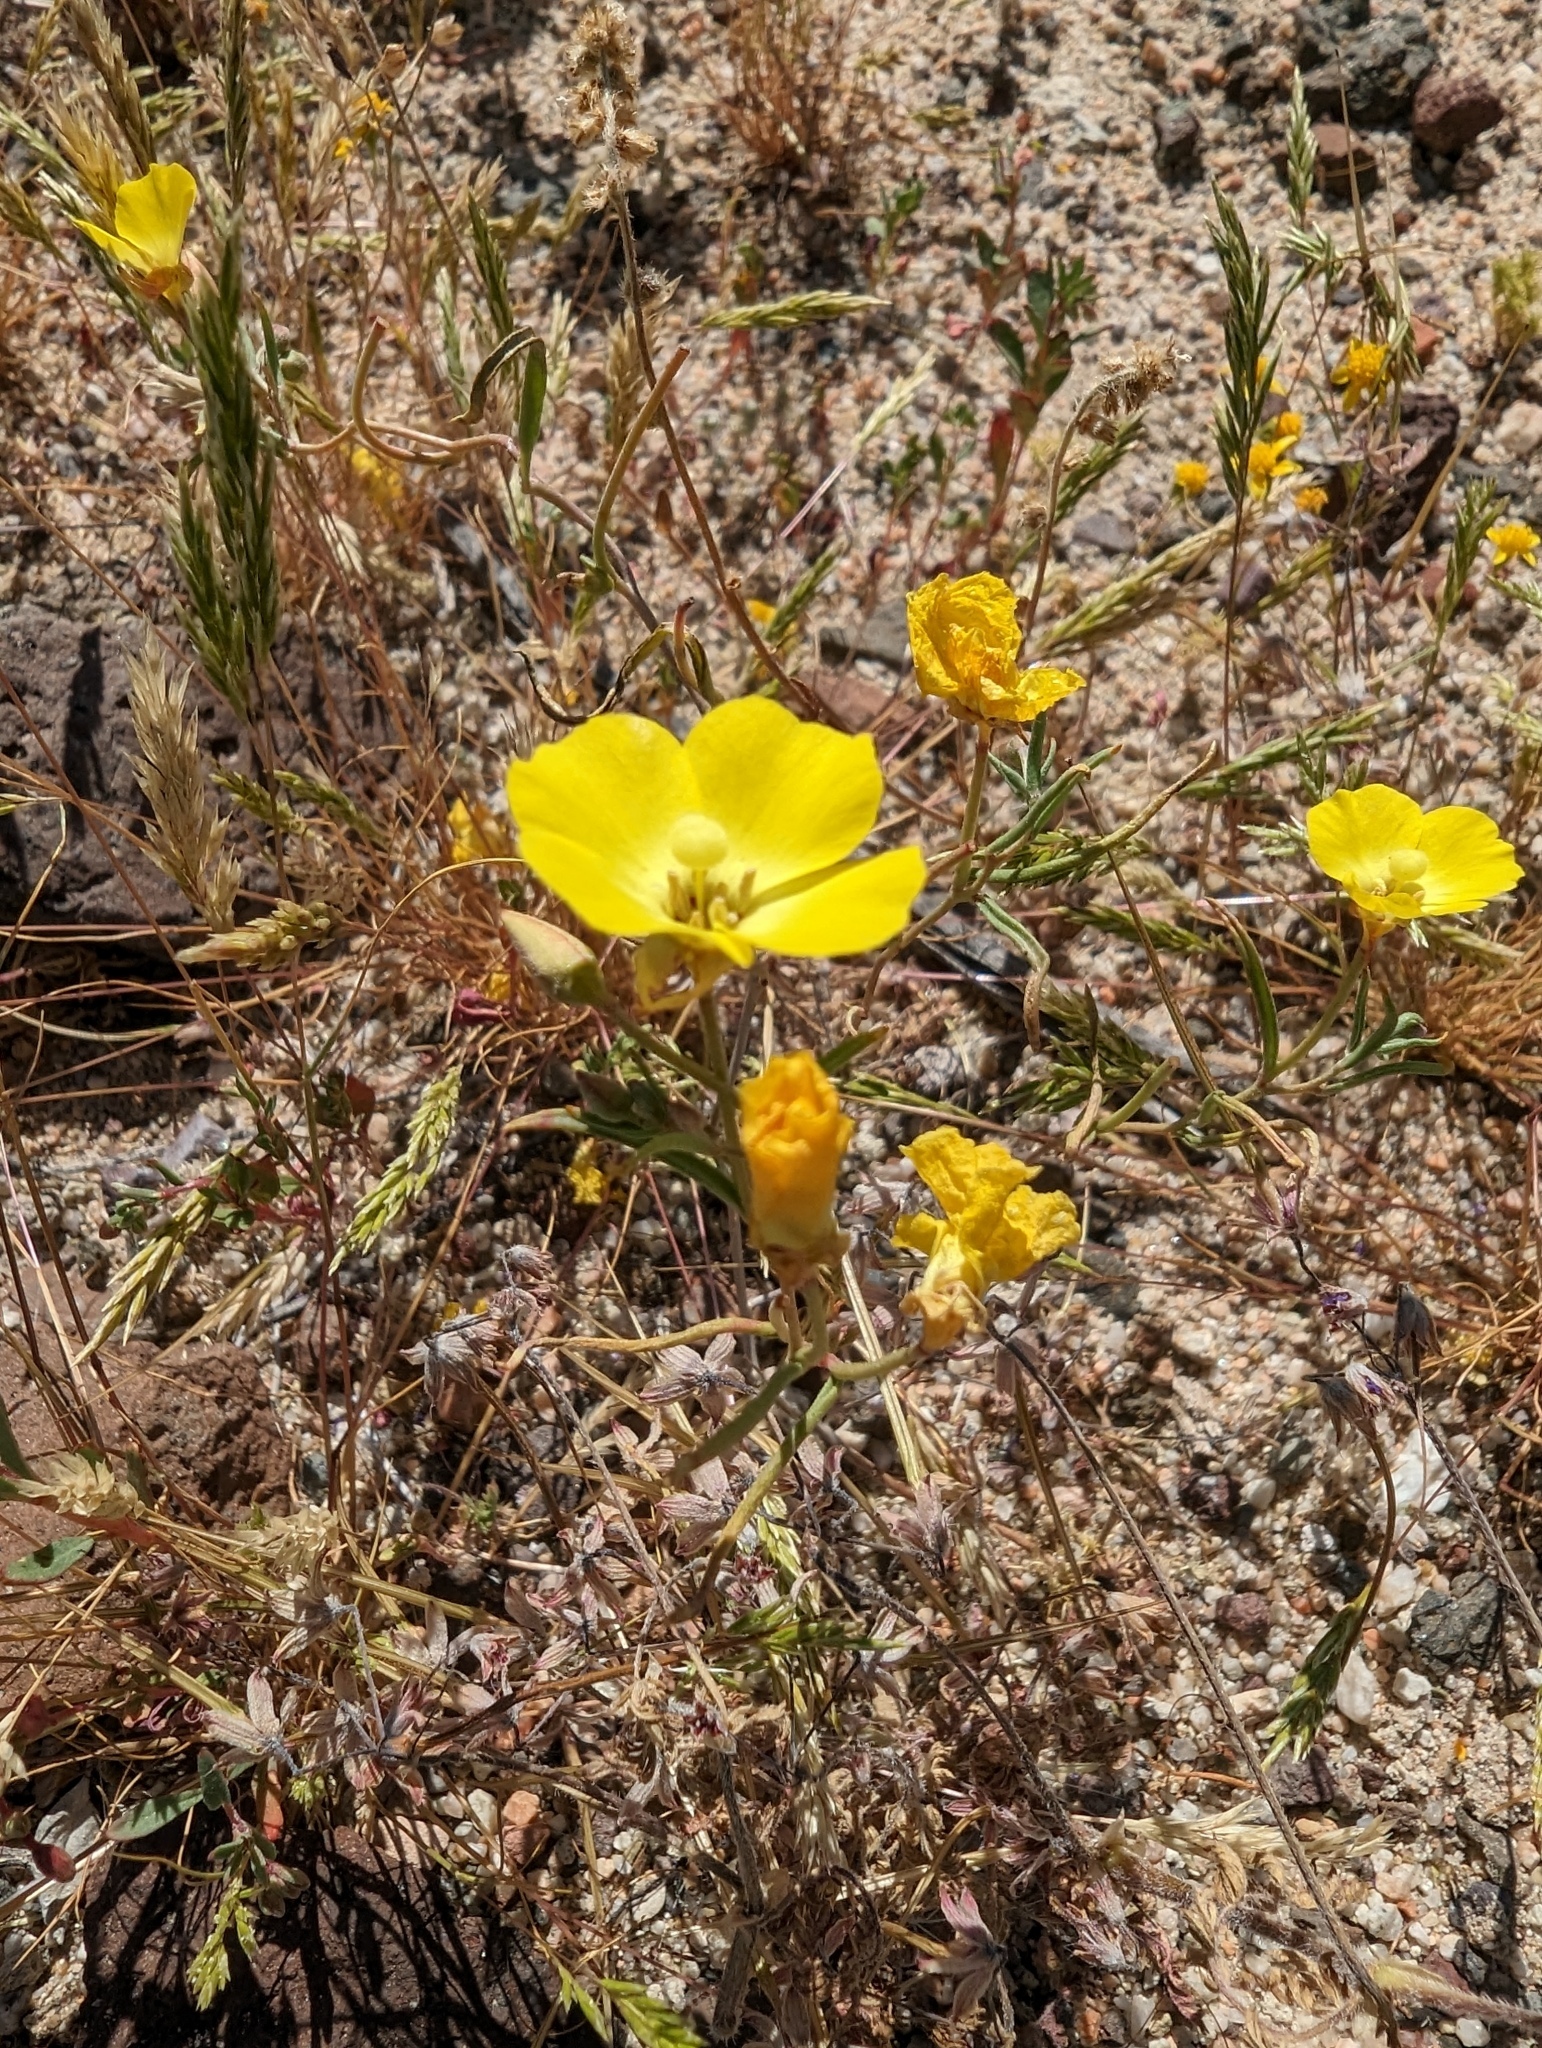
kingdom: Plantae
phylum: Tracheophyta
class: Magnoliopsida
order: Myrtales
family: Onagraceae
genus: Camissonia
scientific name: Camissonia campestris
